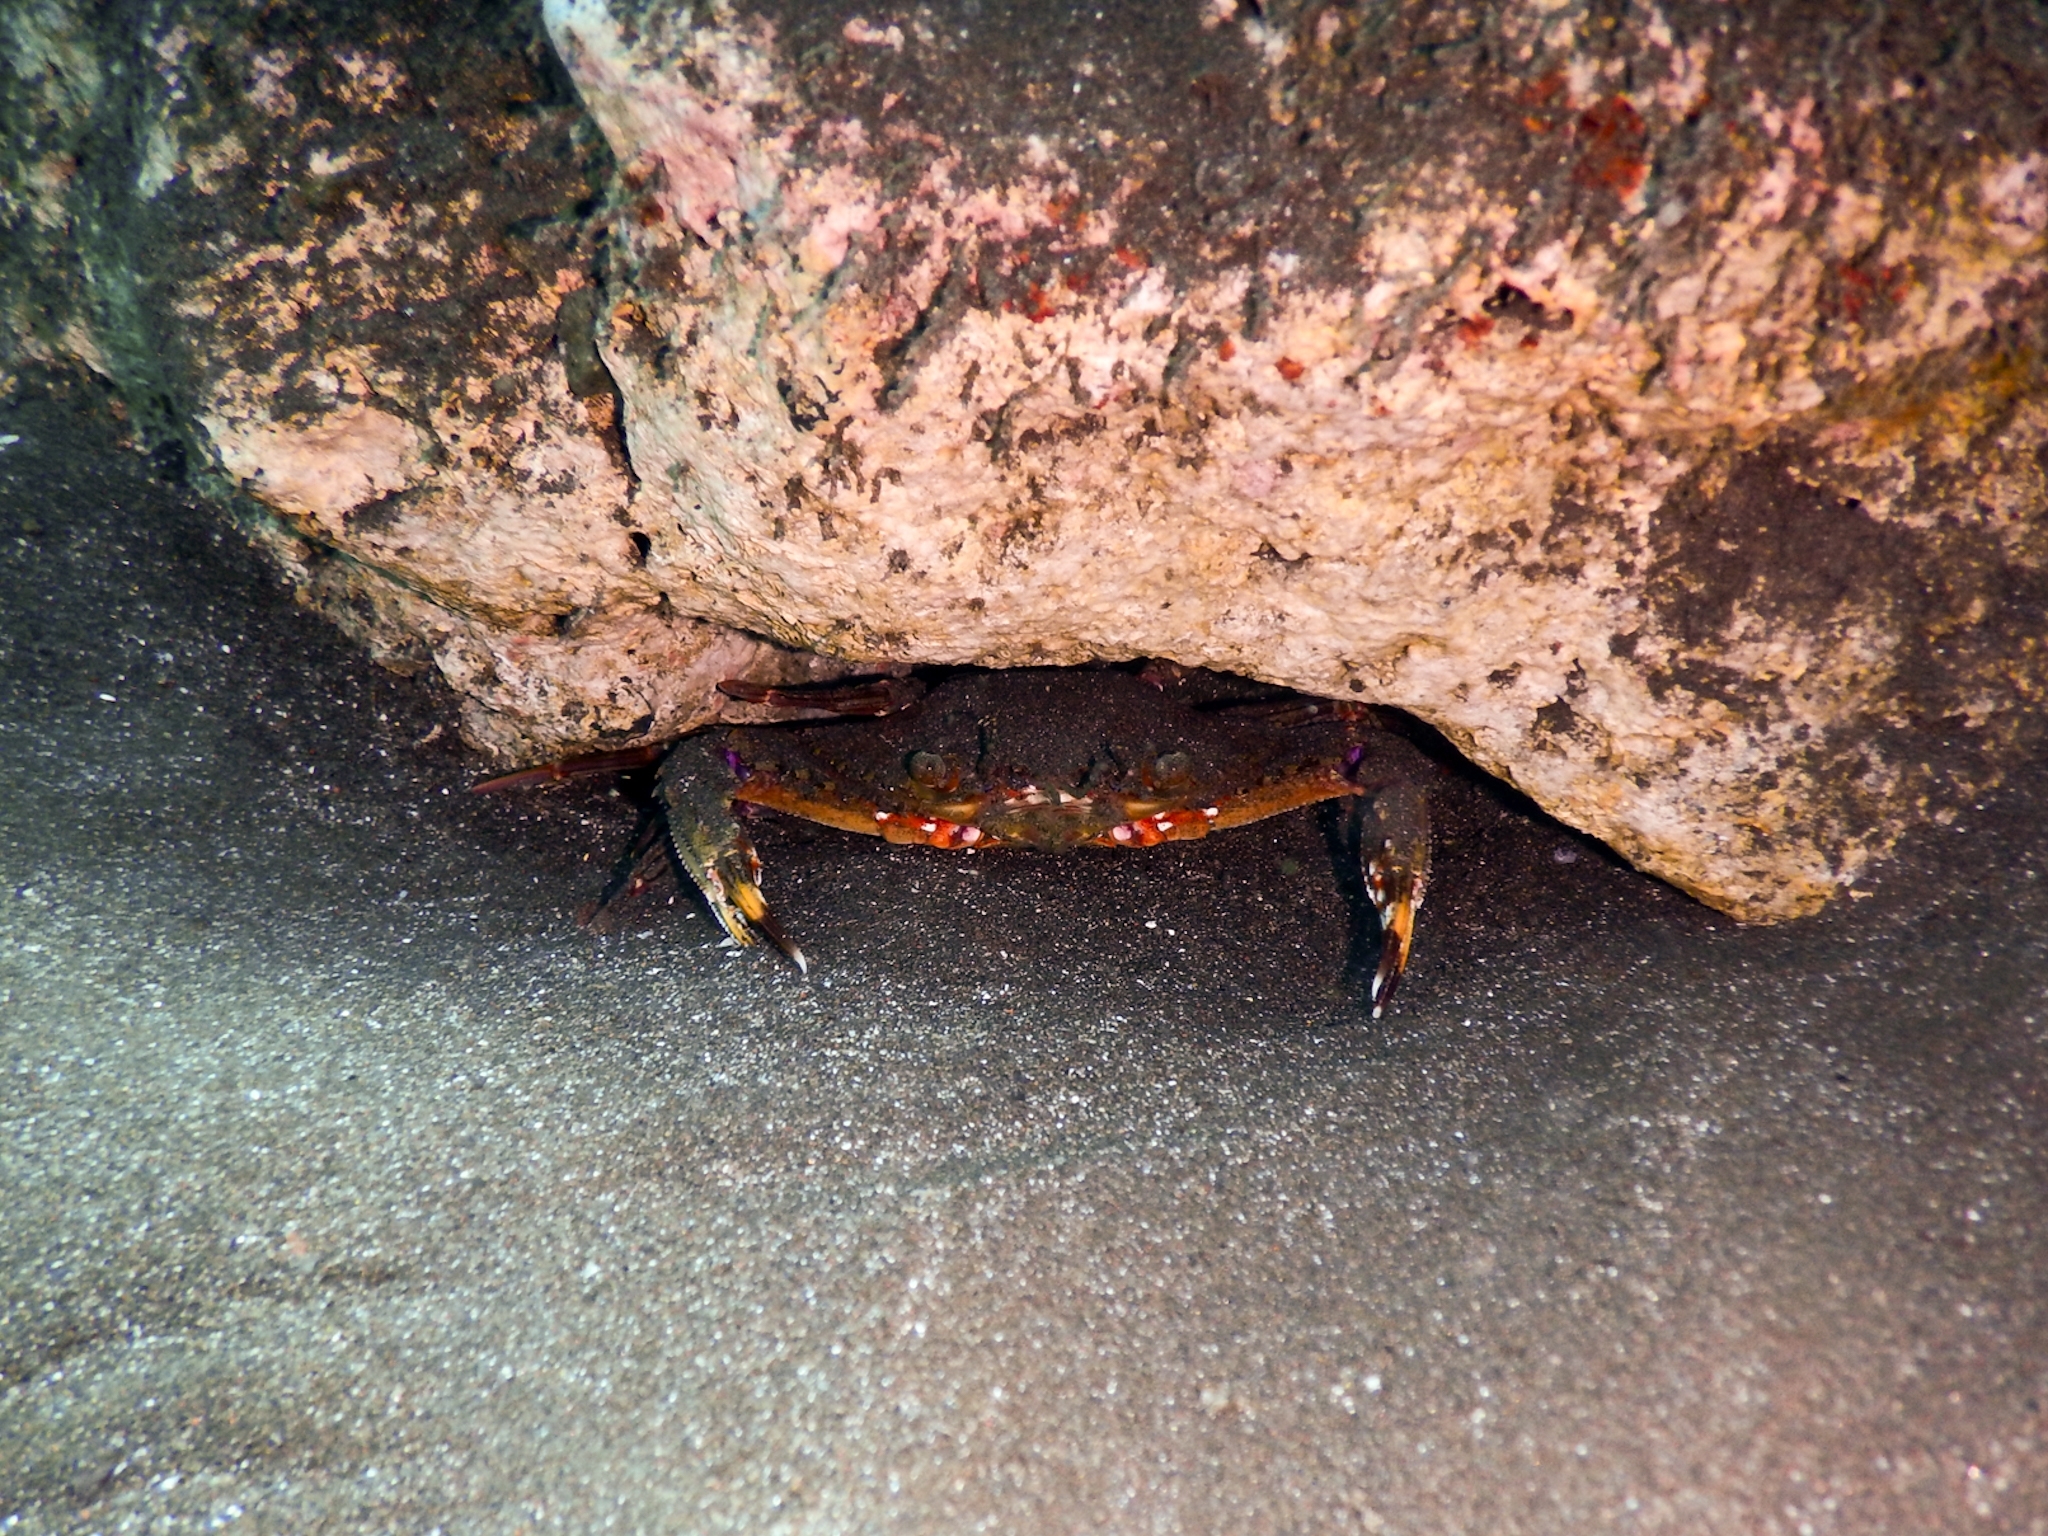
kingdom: Animalia
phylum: Arthropoda
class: Malacostraca
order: Decapoda
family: Portunidae
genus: Cronius
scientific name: Cronius ruber
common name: Red crab
